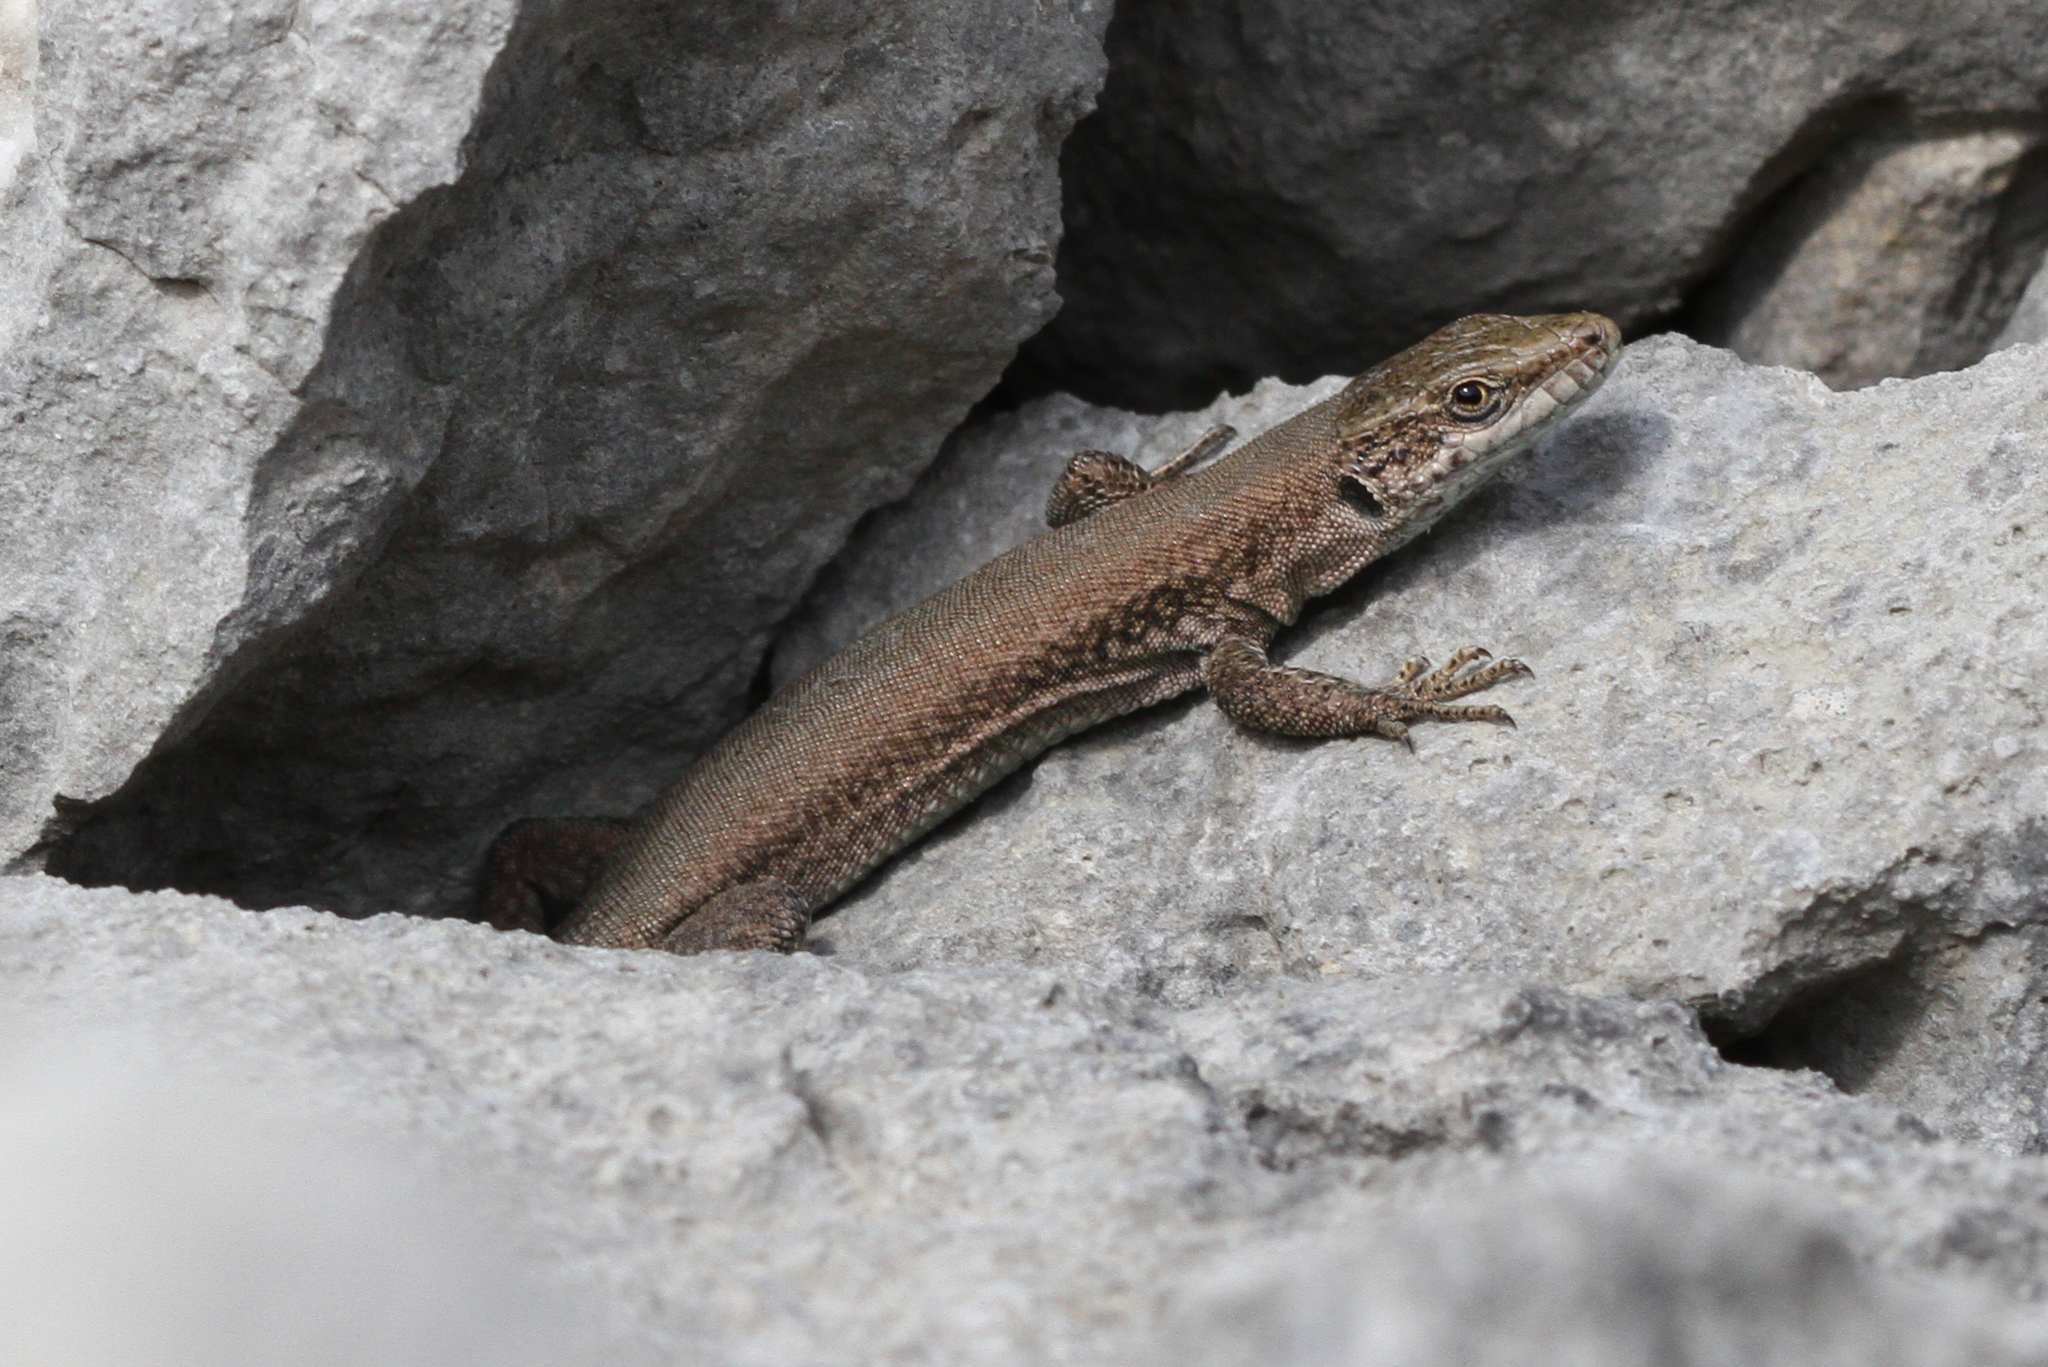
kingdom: Animalia
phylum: Chordata
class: Squamata
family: Lacertidae
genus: Podarcis
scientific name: Podarcis liolepis
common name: Catalonian wall lizard
